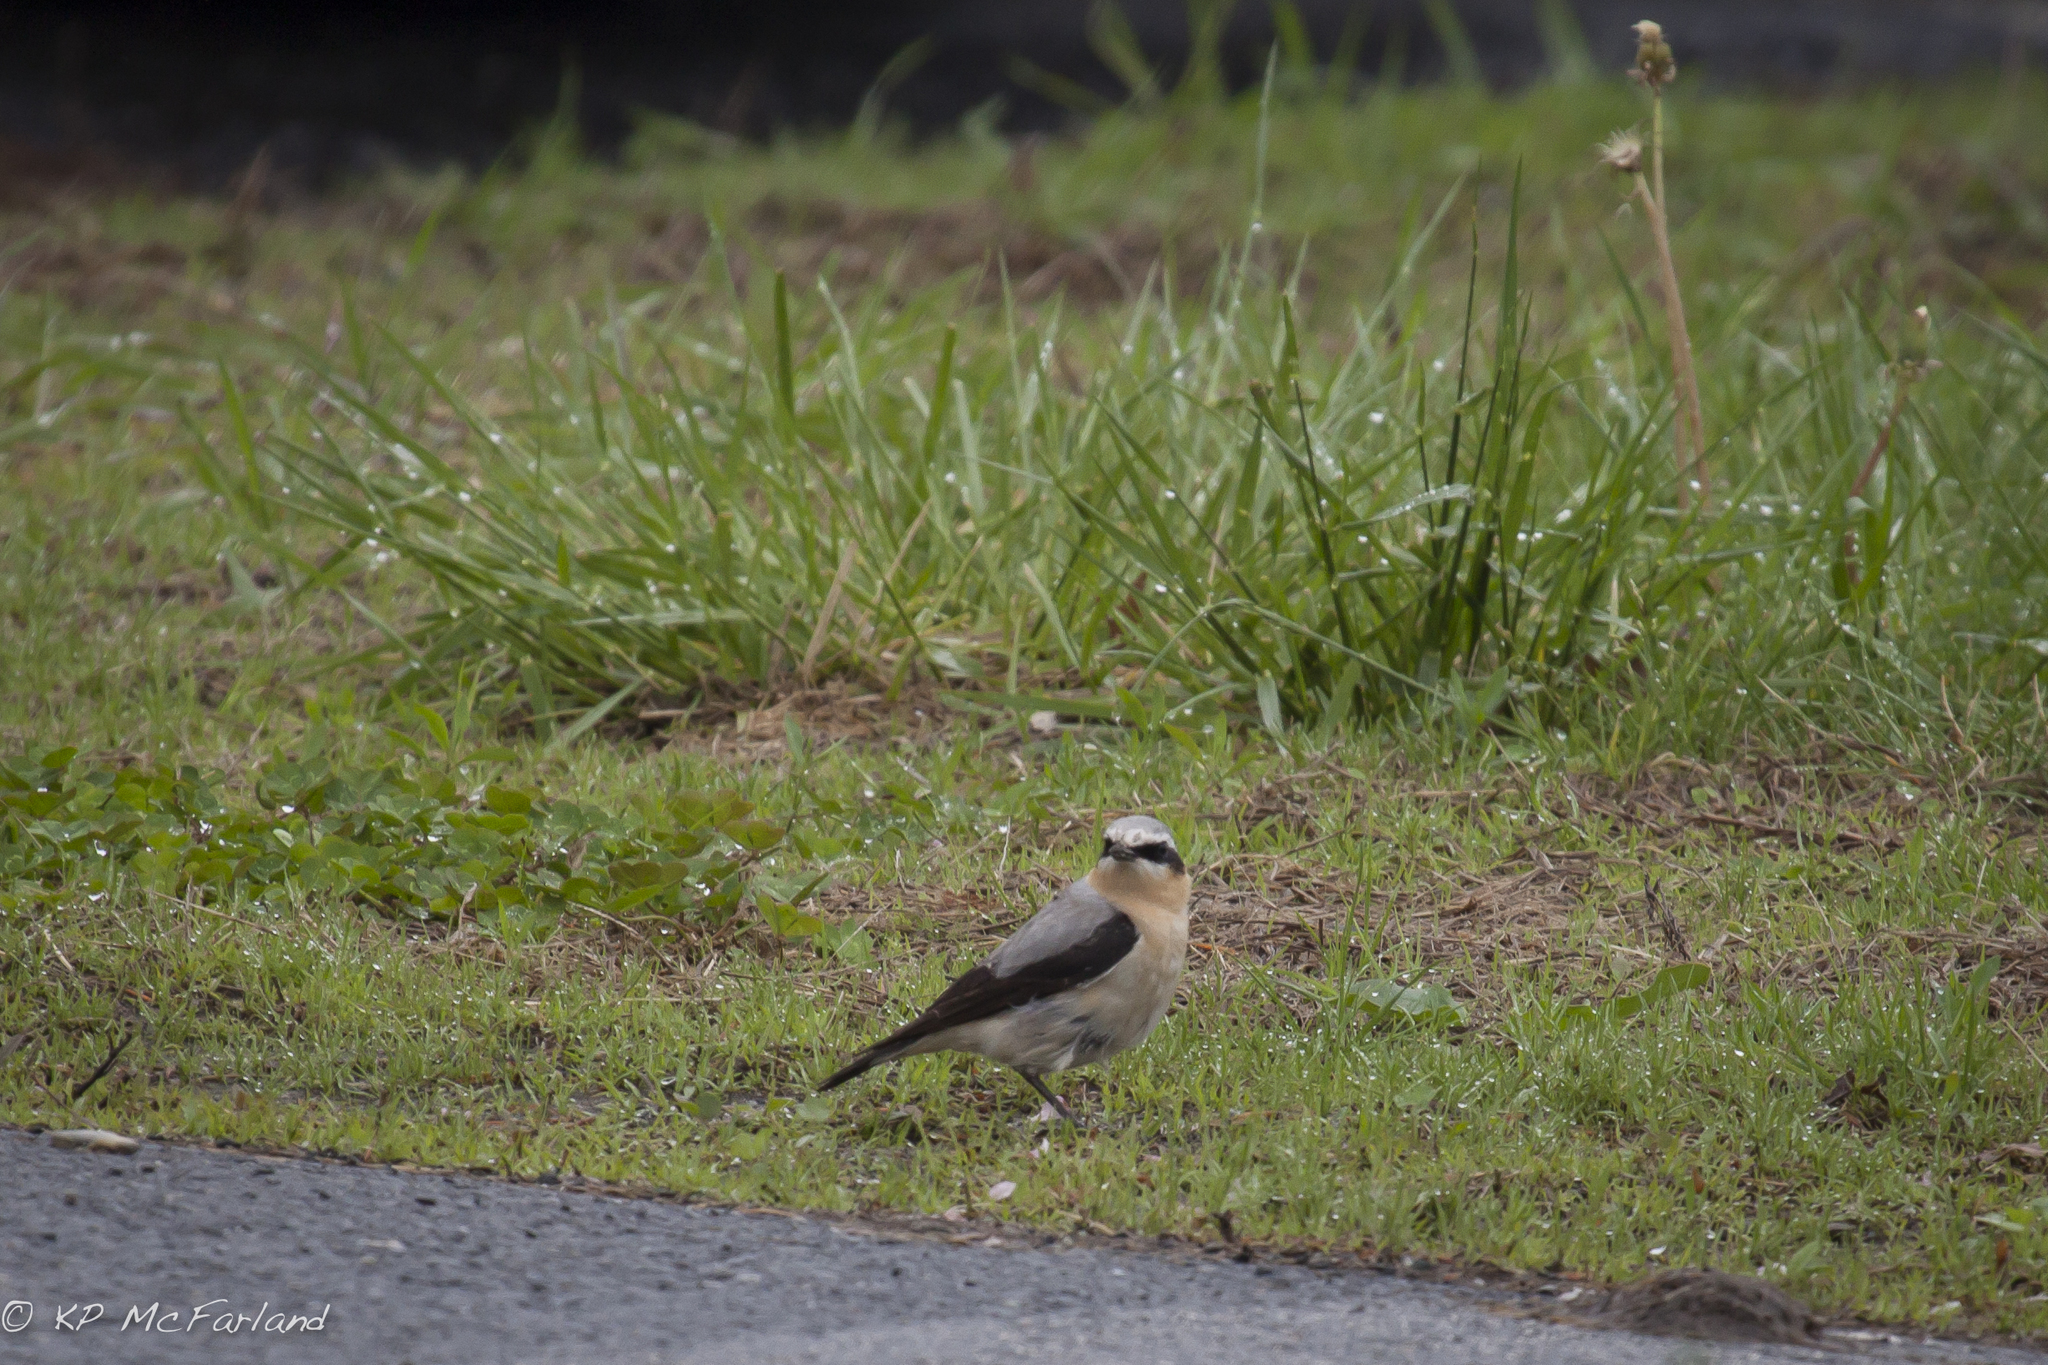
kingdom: Animalia
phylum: Chordata
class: Aves
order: Passeriformes
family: Muscicapidae
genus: Oenanthe
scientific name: Oenanthe oenanthe
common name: Northern wheatear
